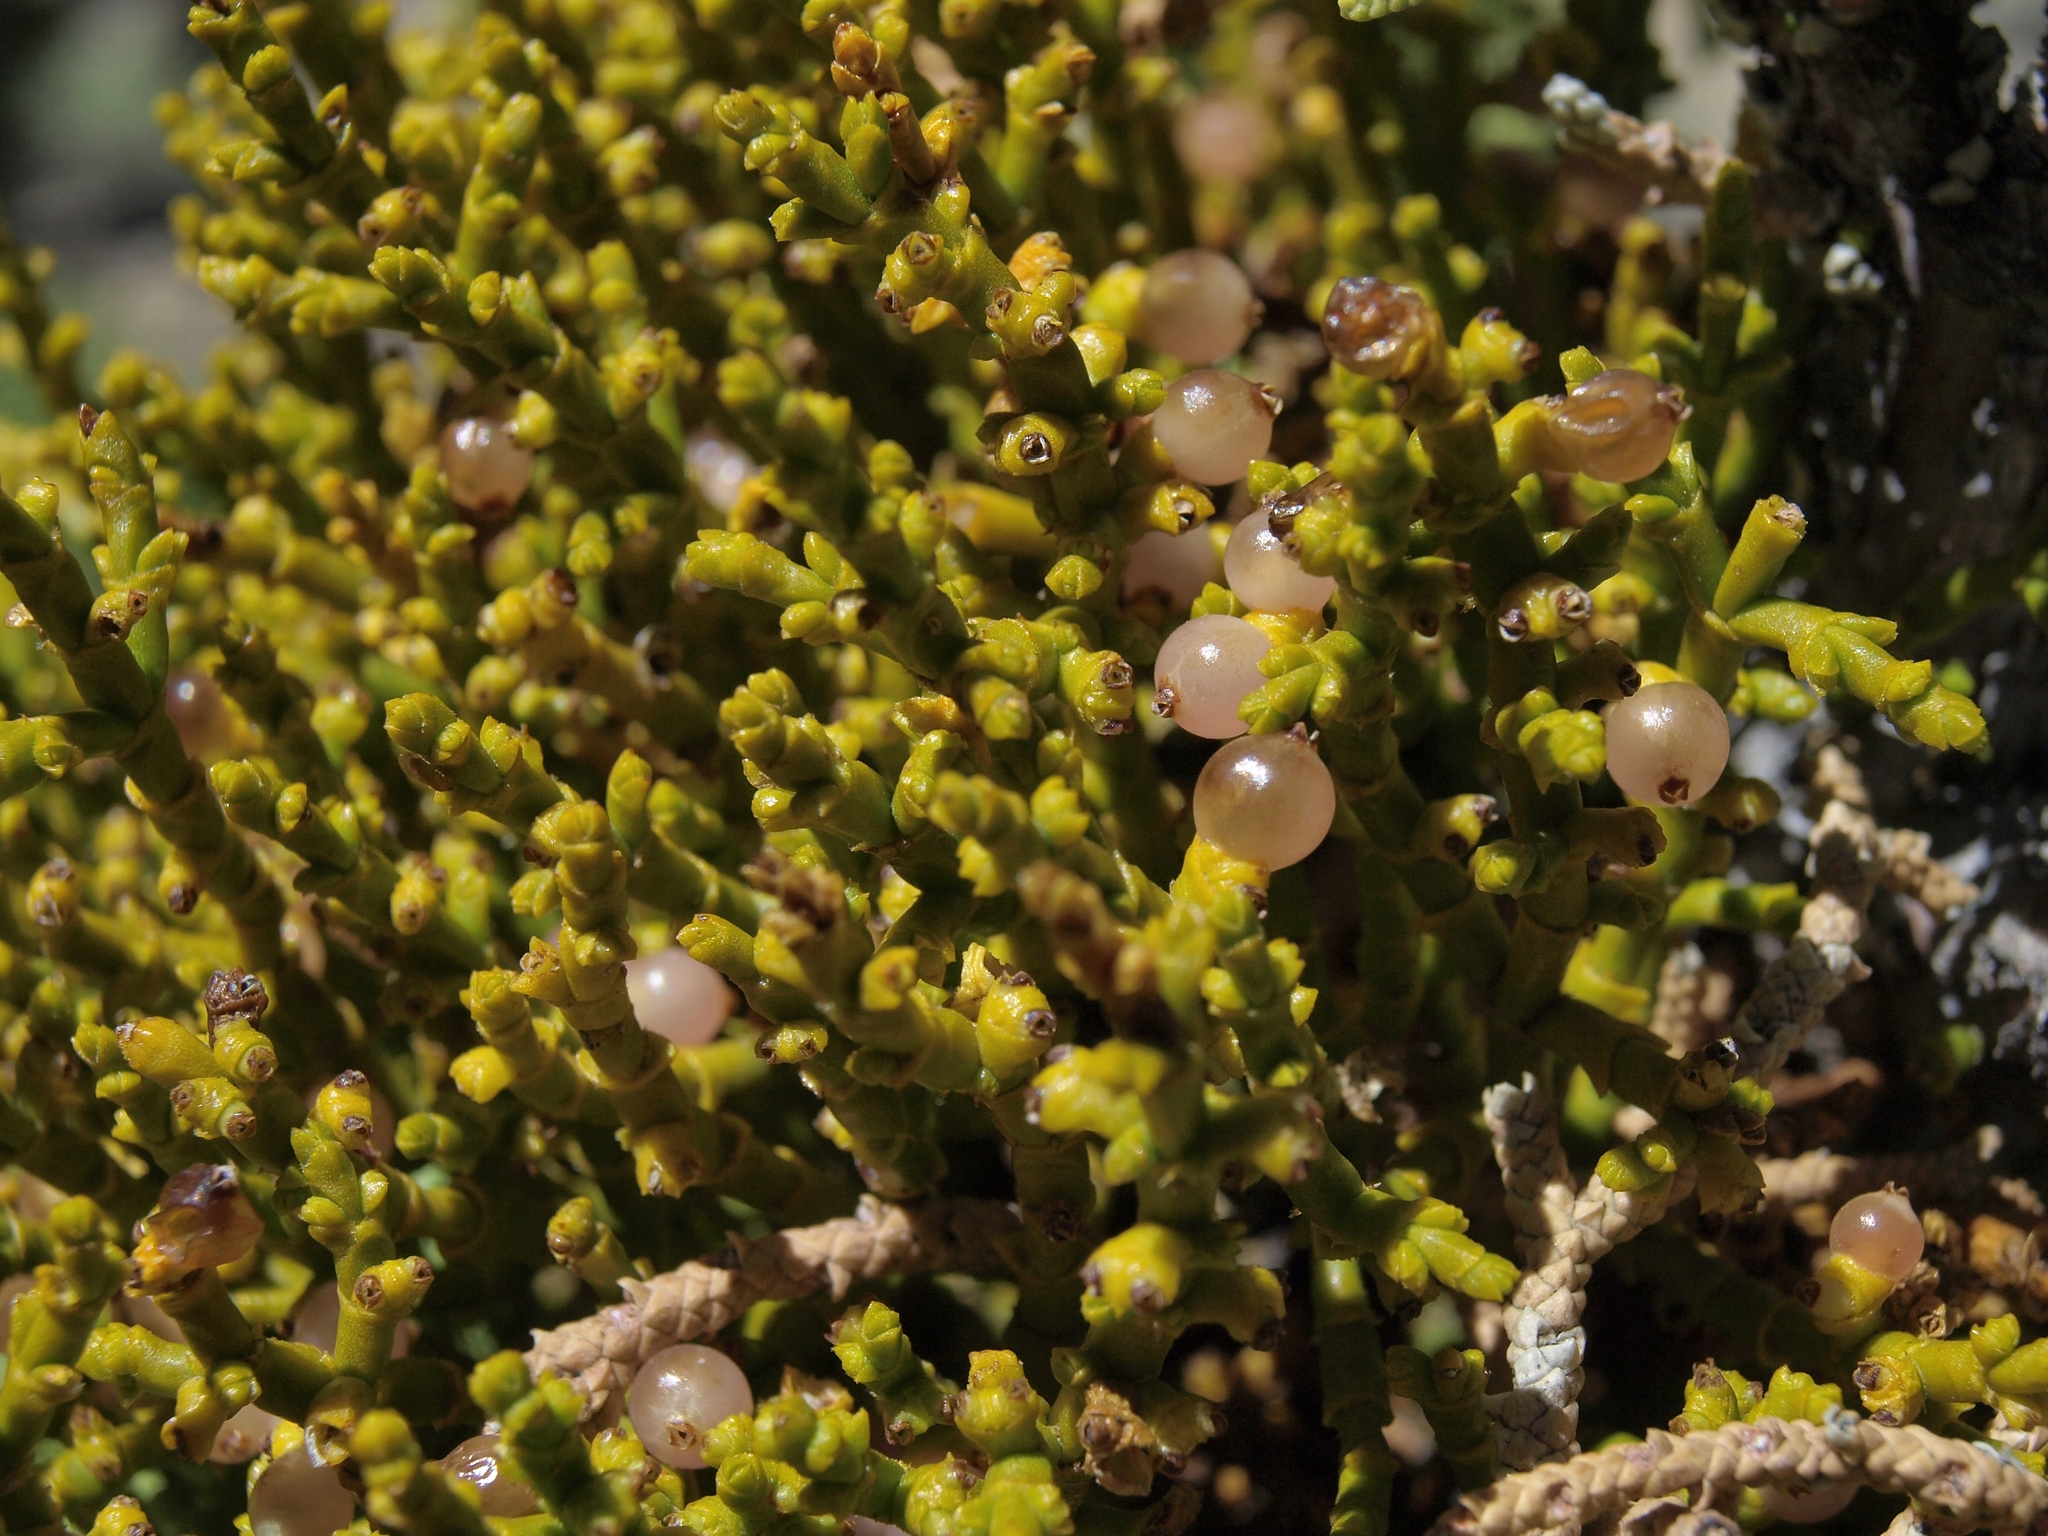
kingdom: Plantae
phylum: Tracheophyta
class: Magnoliopsida
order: Santalales
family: Viscaceae
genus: Phoradendron
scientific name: Phoradendron juniperinum
